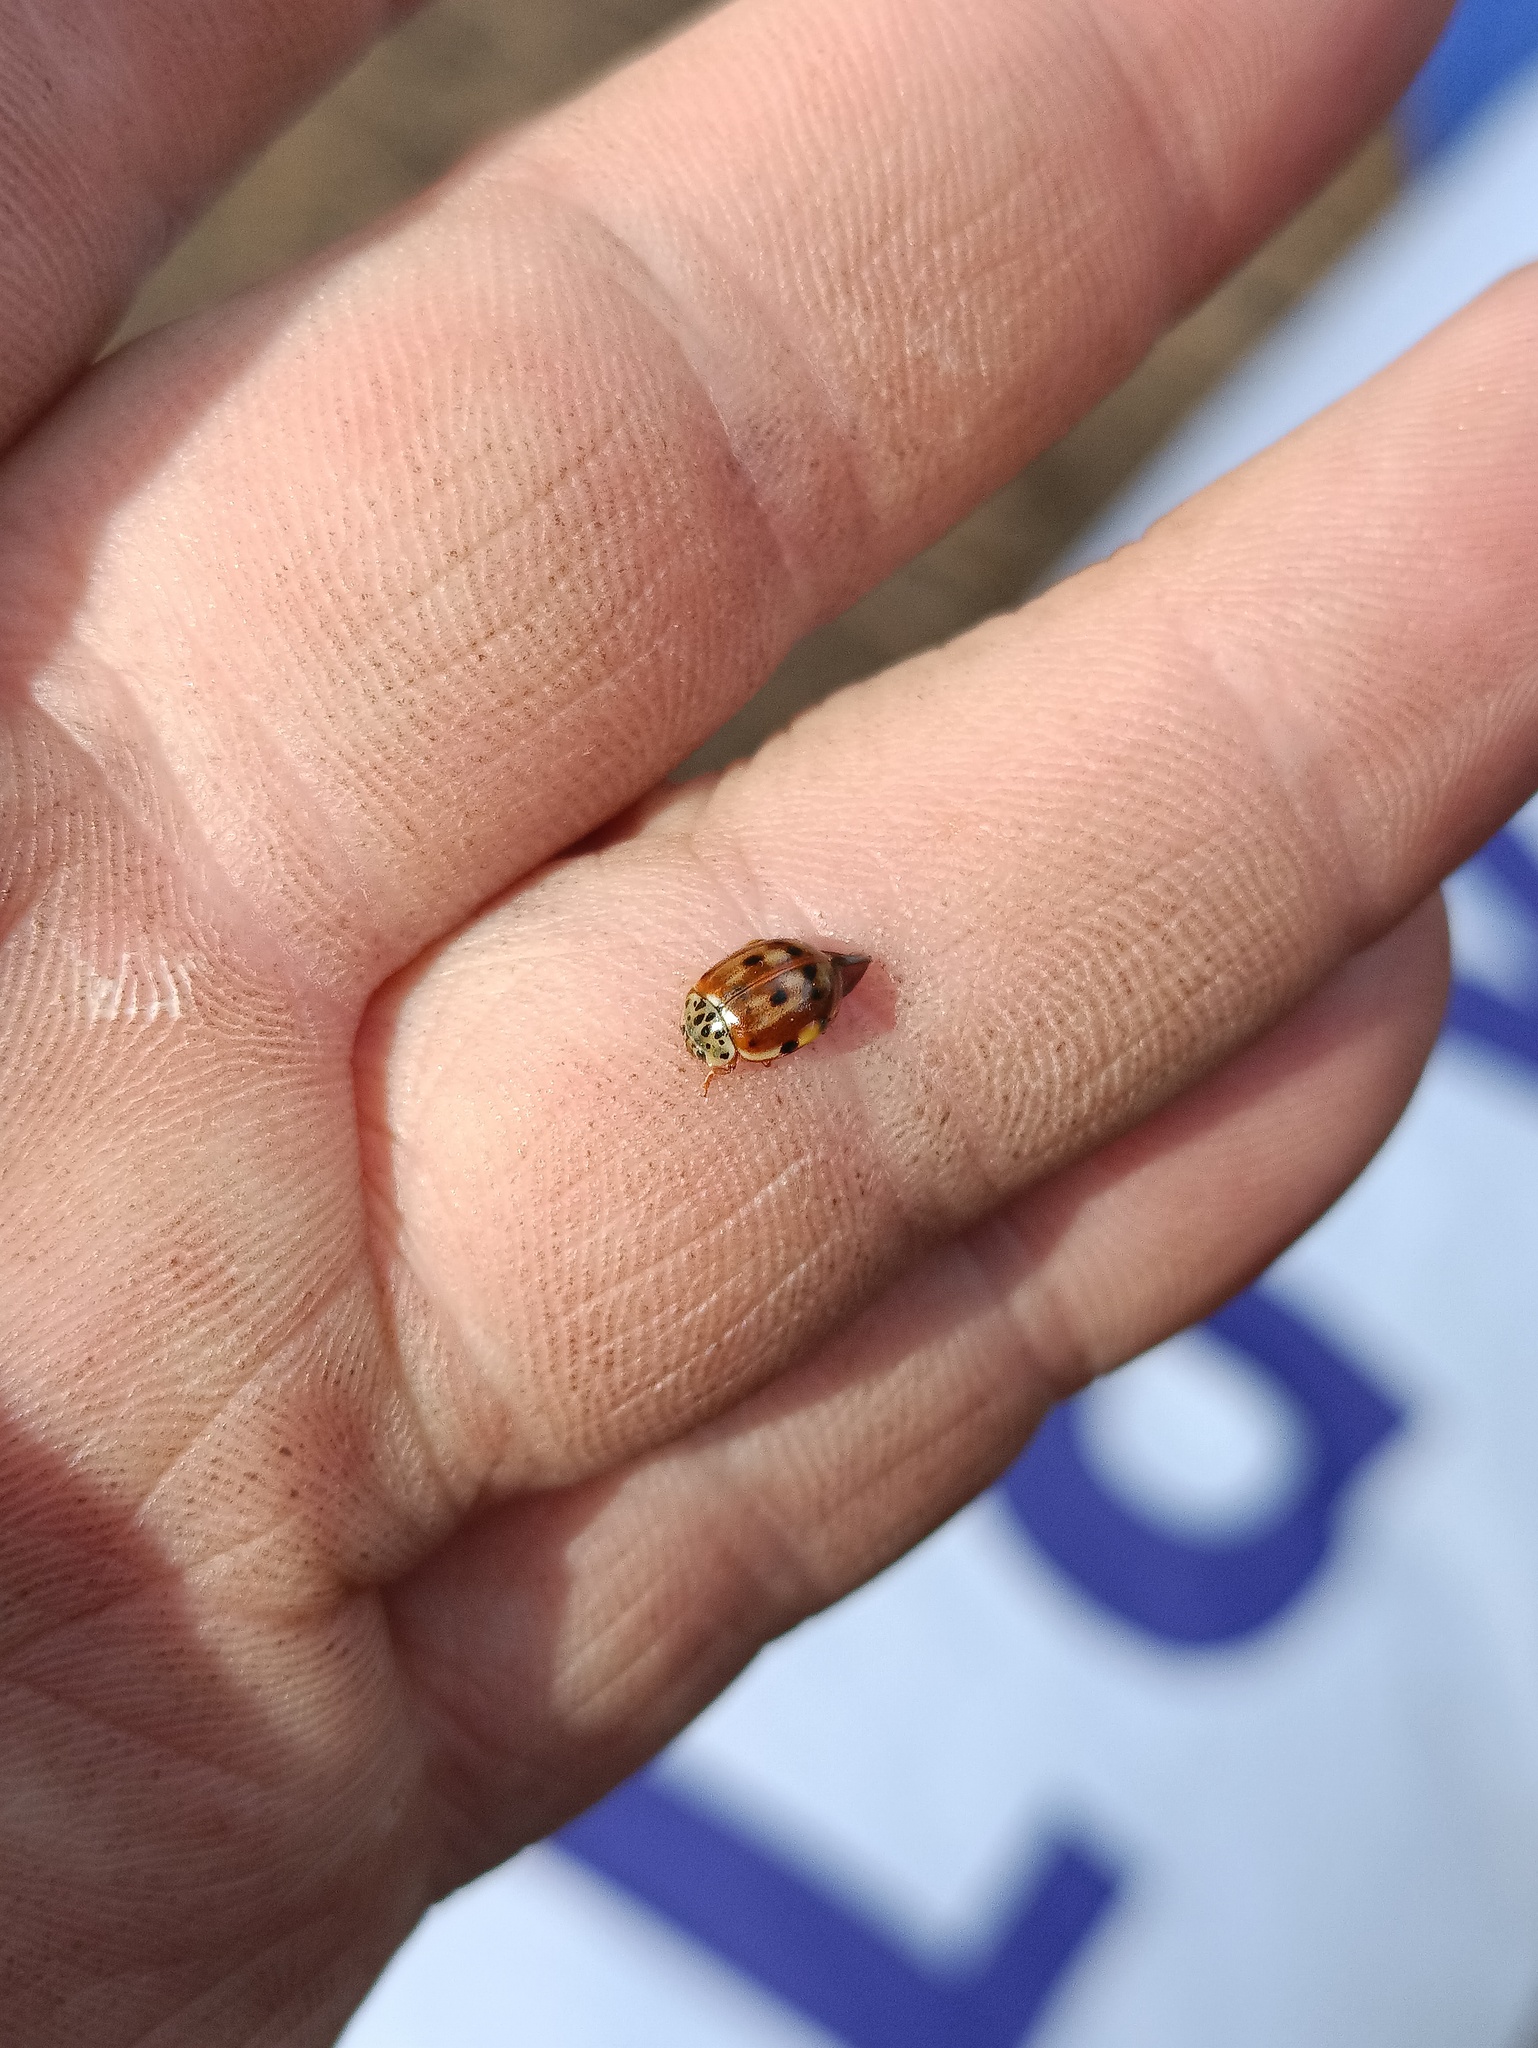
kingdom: Animalia
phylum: Arthropoda
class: Insecta
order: Coleoptera
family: Coccinellidae
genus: Harmonia
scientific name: Harmonia quadripunctata
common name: Cream-streaked ladybird
